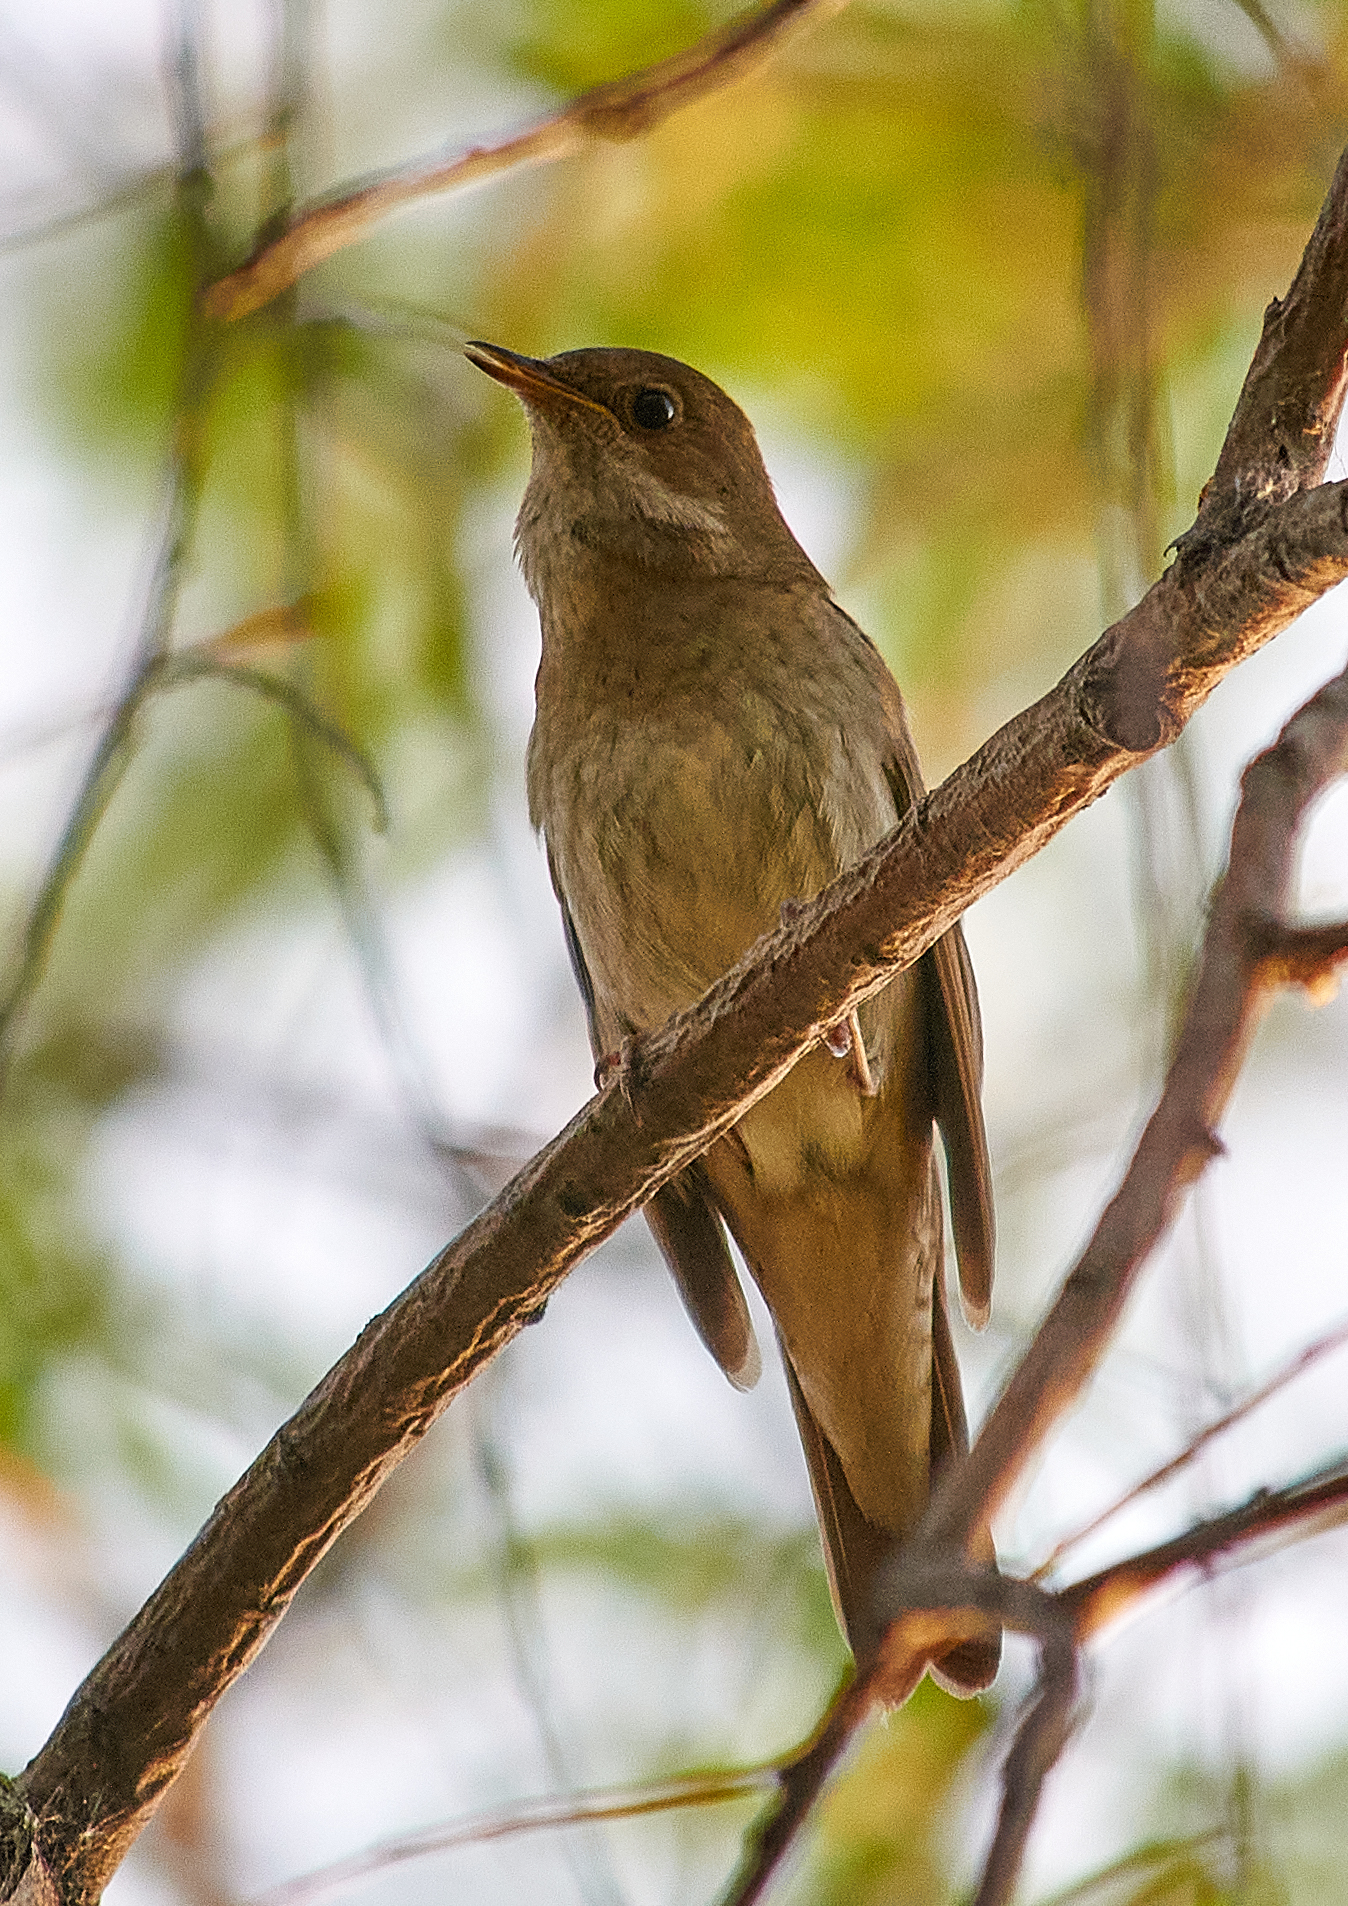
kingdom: Animalia
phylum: Chordata
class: Aves
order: Passeriformes
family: Muscicapidae
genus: Luscinia
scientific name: Luscinia luscinia
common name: Thrush nightingale
